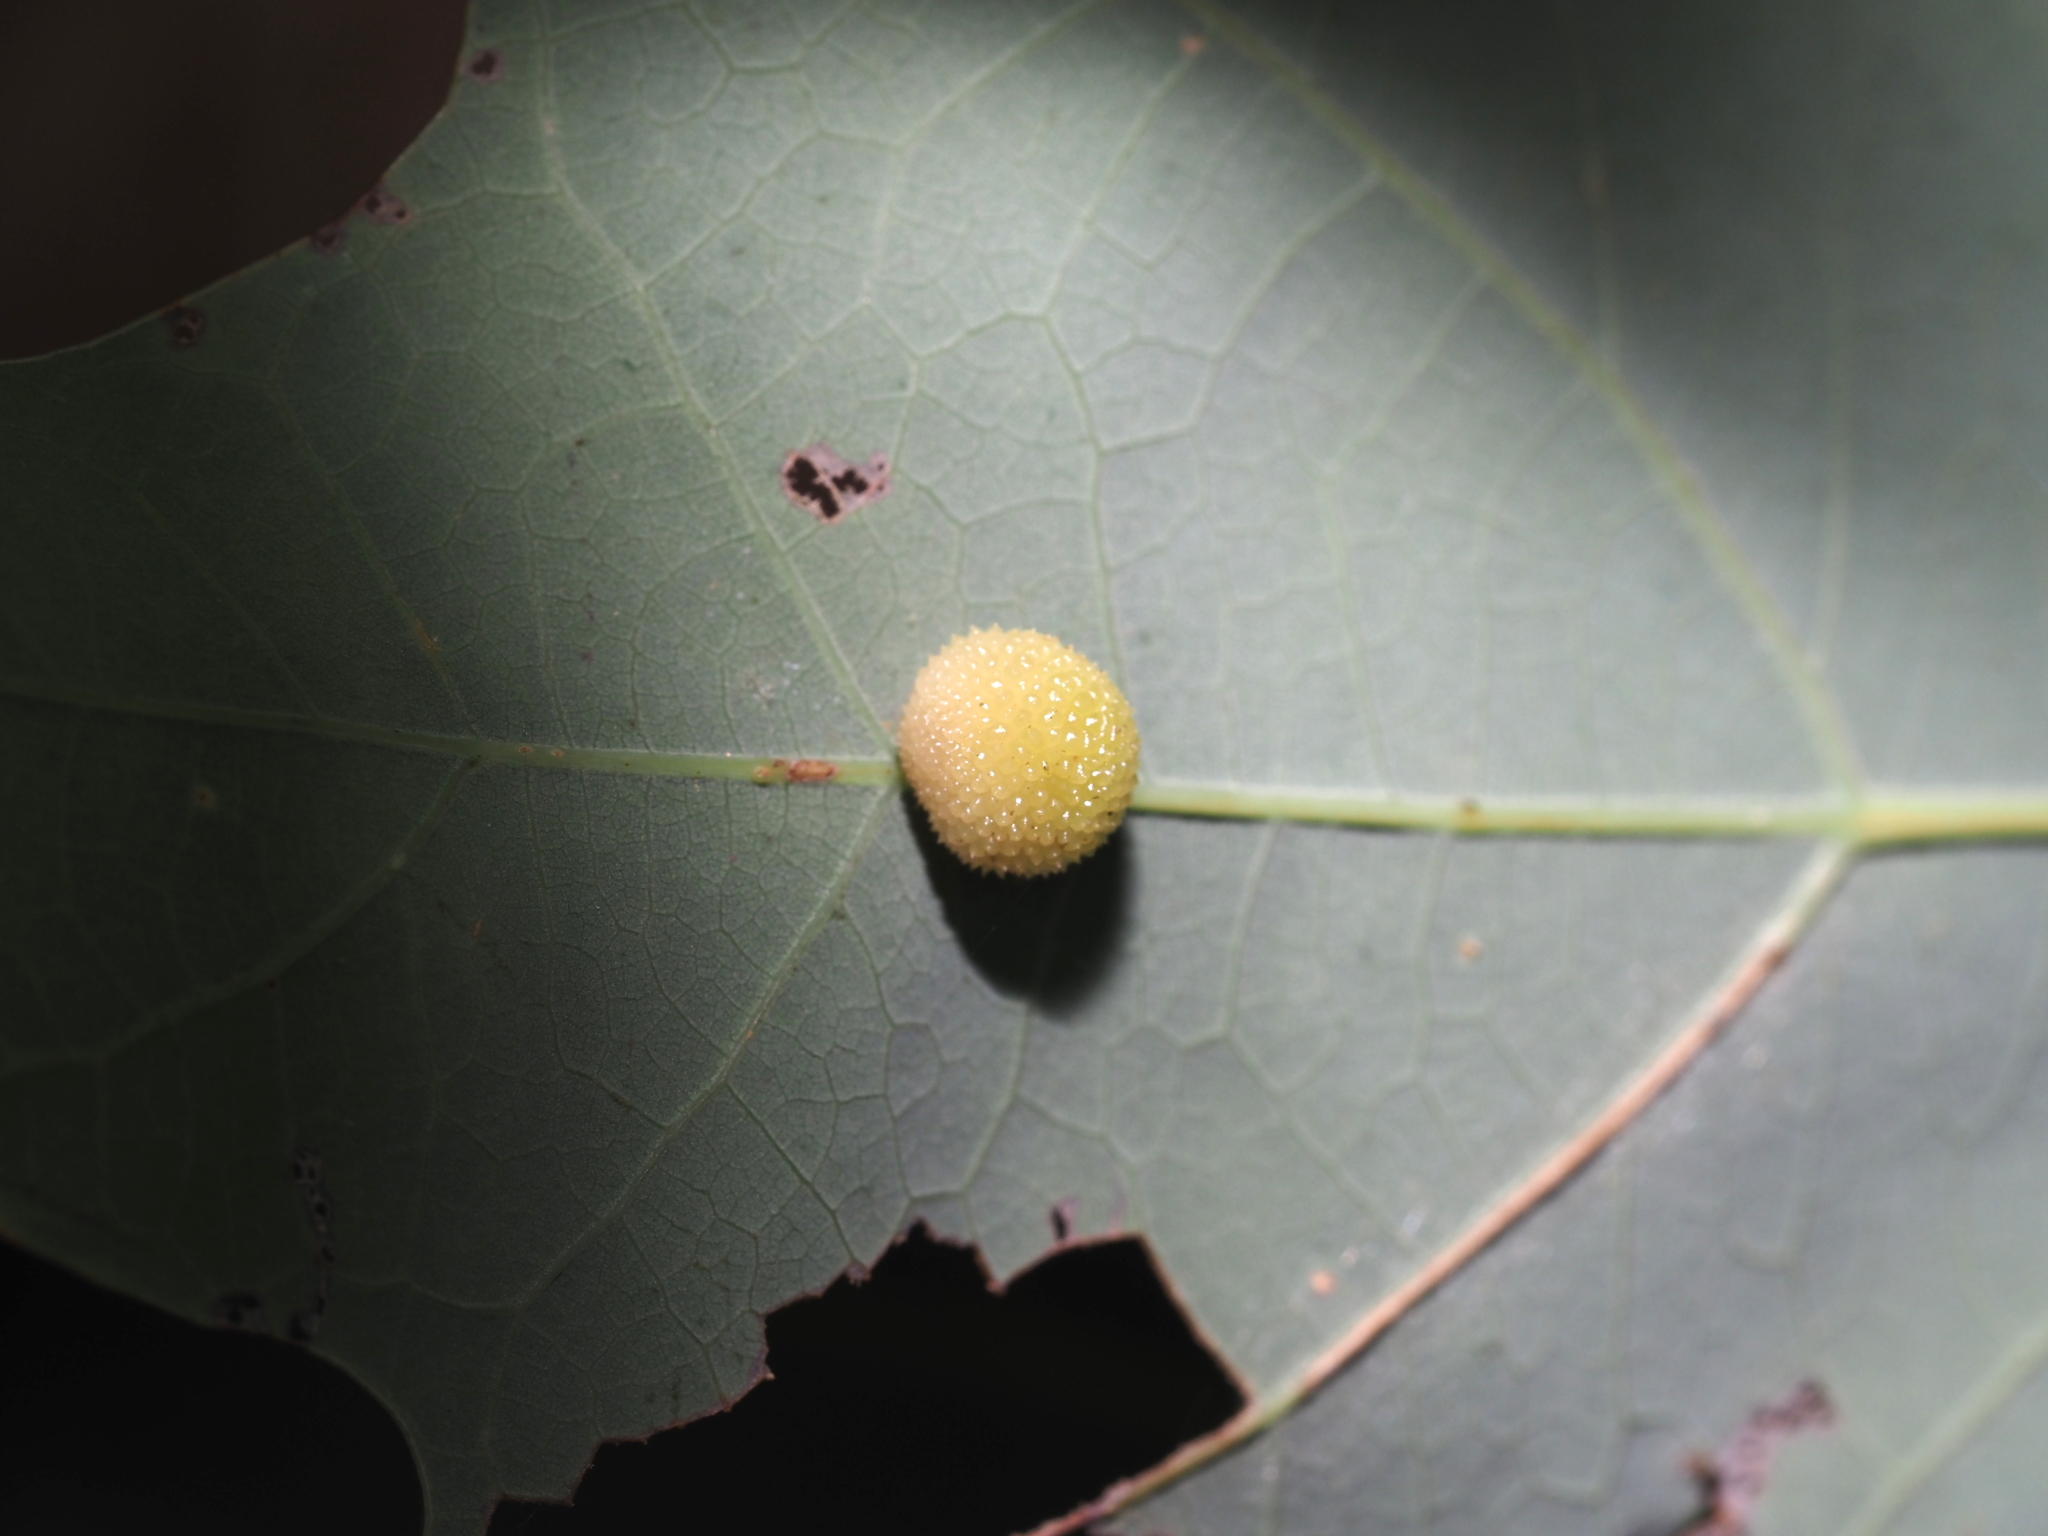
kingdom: Animalia
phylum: Arthropoda
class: Insecta
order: Hymenoptera
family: Cynipidae
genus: Acraspis
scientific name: Acraspis
